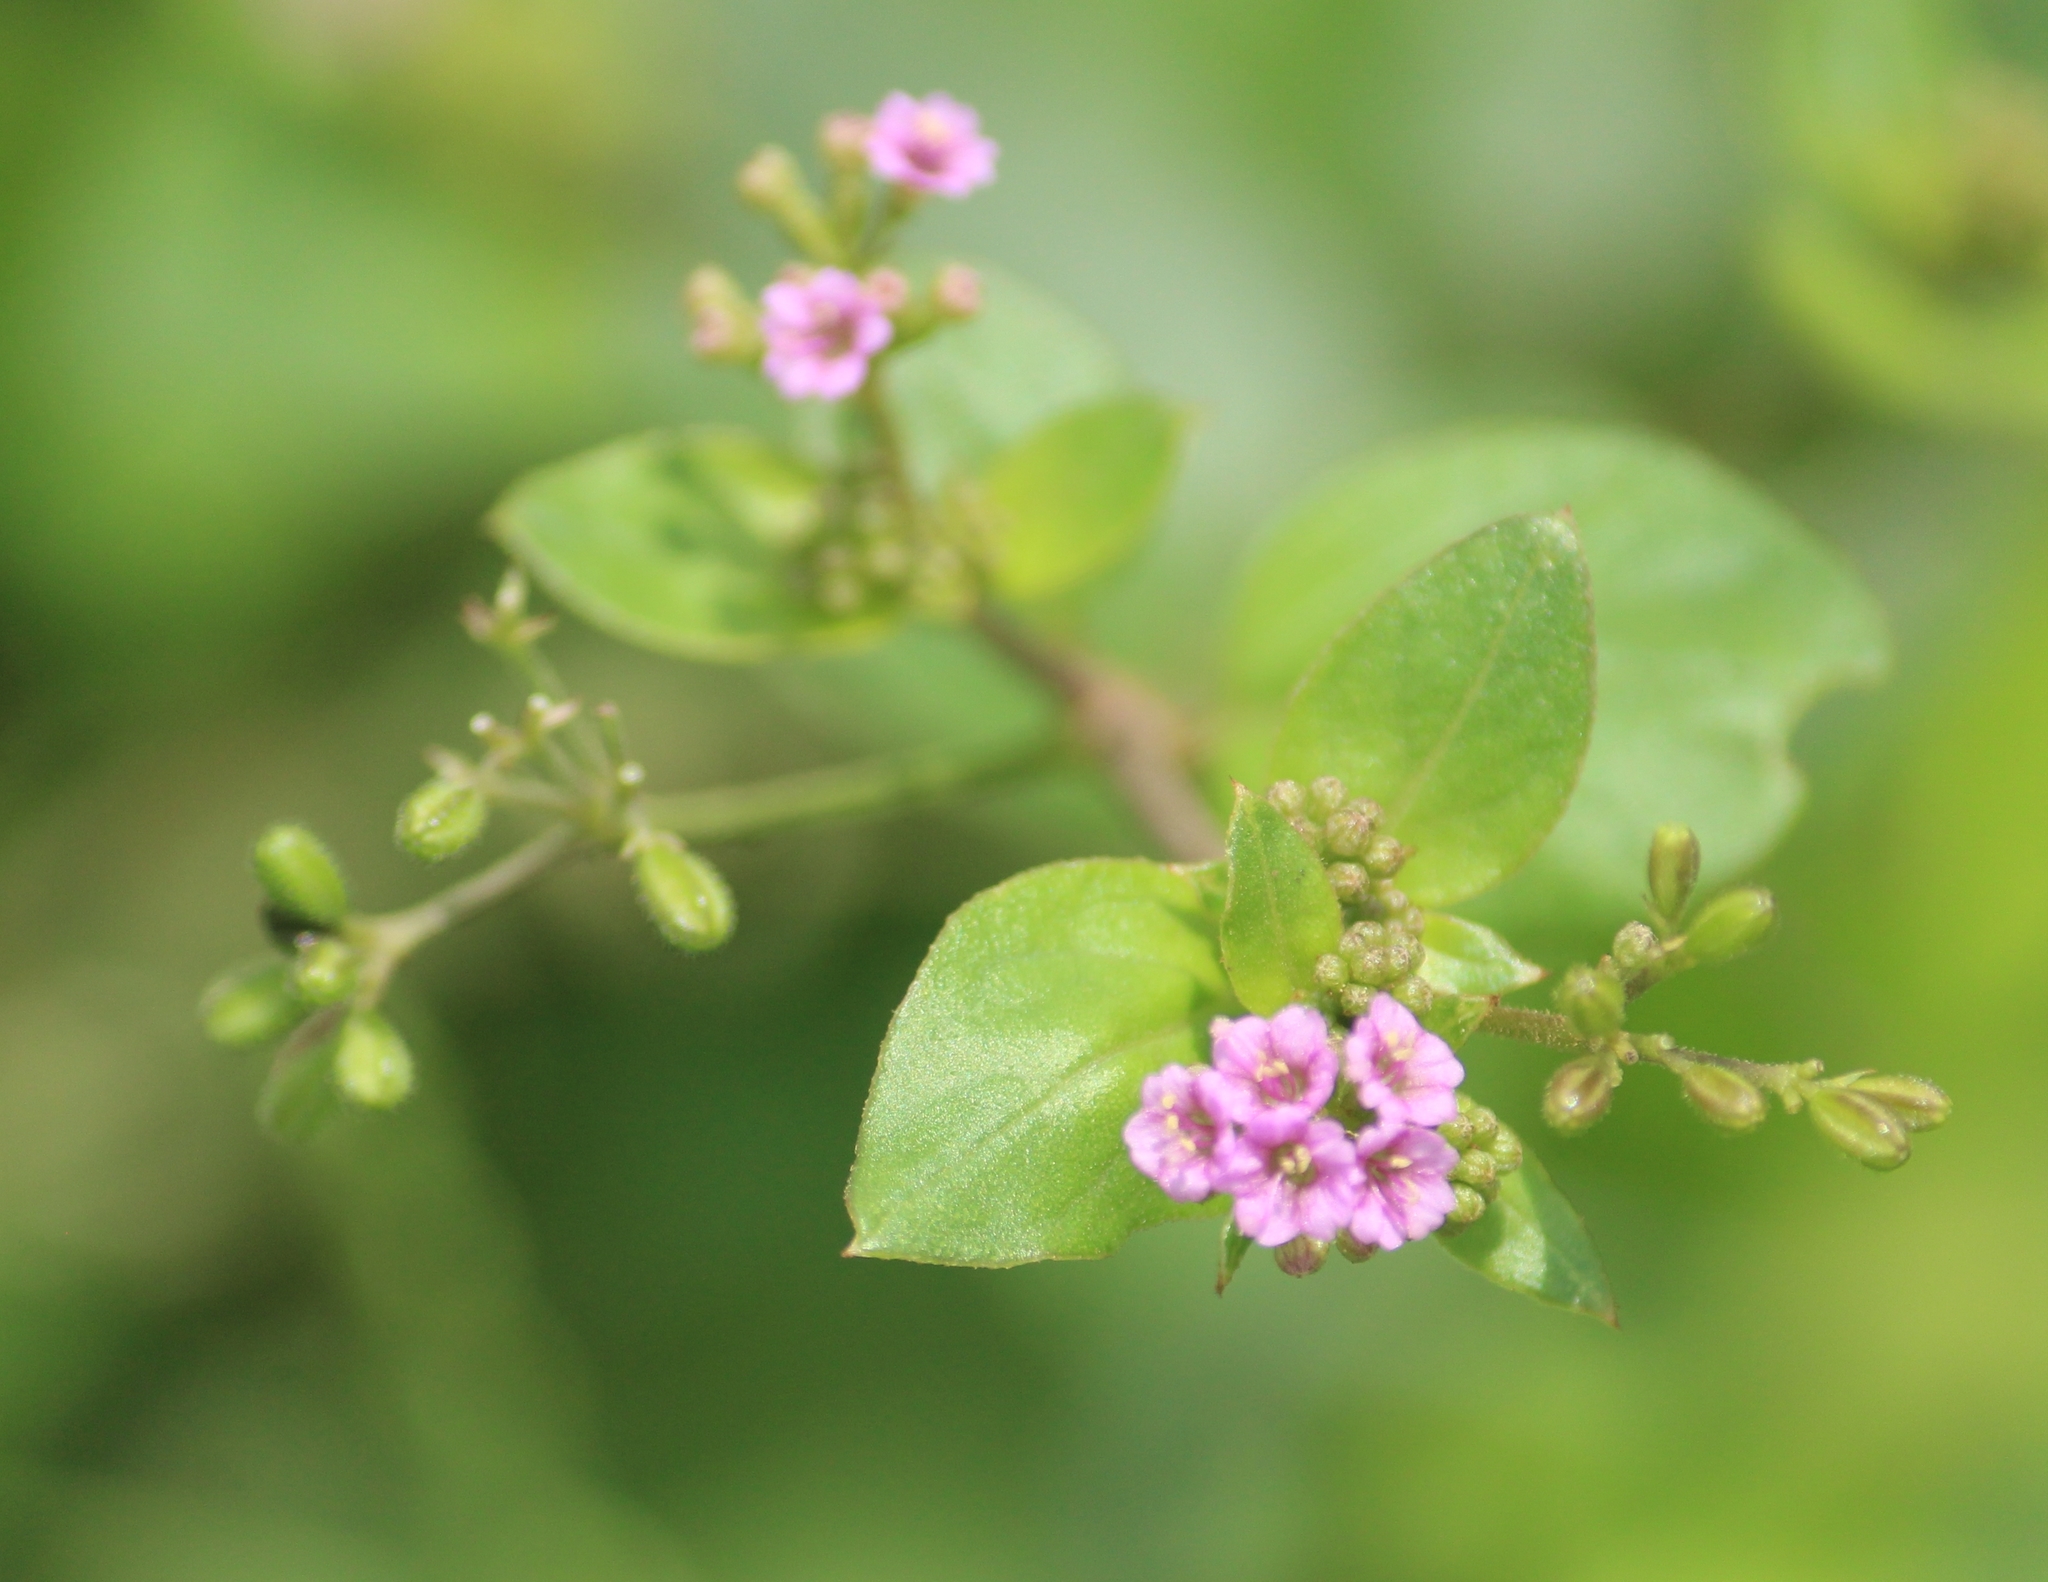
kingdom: Plantae
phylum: Tracheophyta
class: Magnoliopsida
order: Caryophyllales
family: Nyctaginaceae
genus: Boerhavia
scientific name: Boerhavia diffusa
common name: Red spiderling
